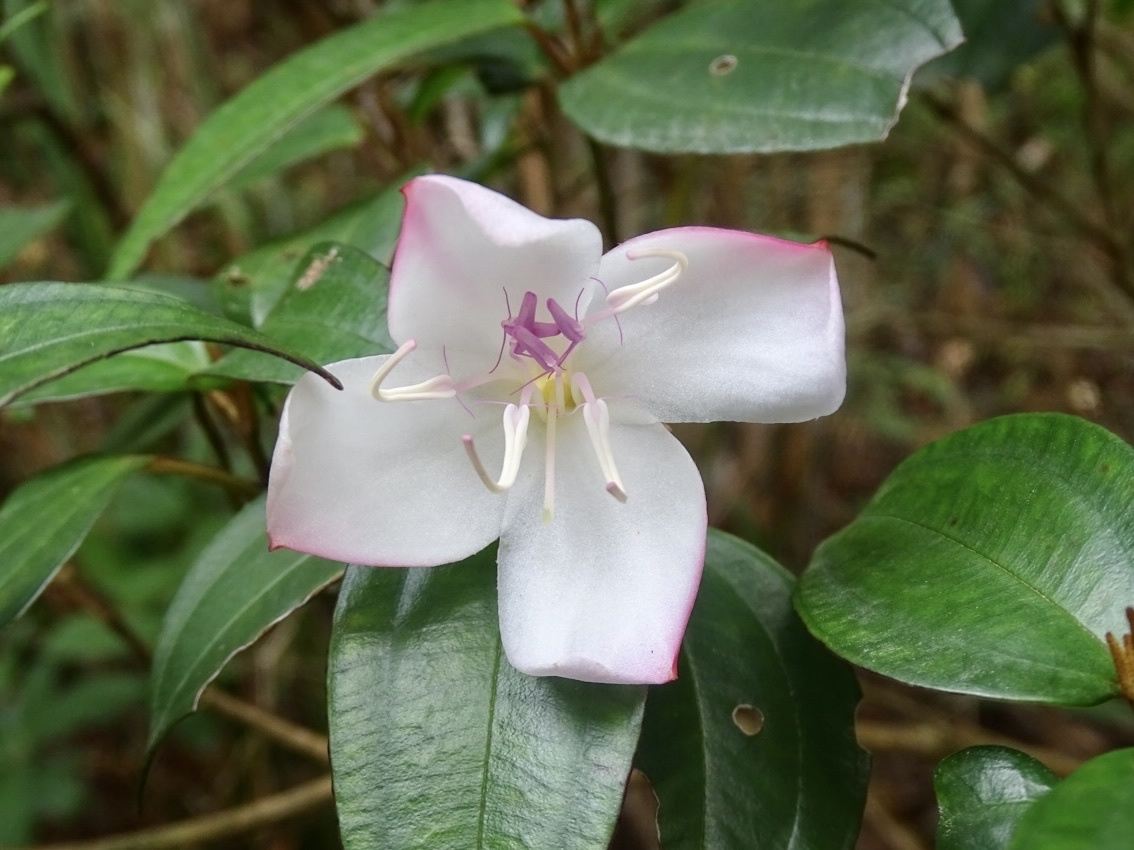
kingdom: Plantae
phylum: Tracheophyta
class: Magnoliopsida
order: Myrtales
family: Melastomataceae
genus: Barthea
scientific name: Barthea barthei
